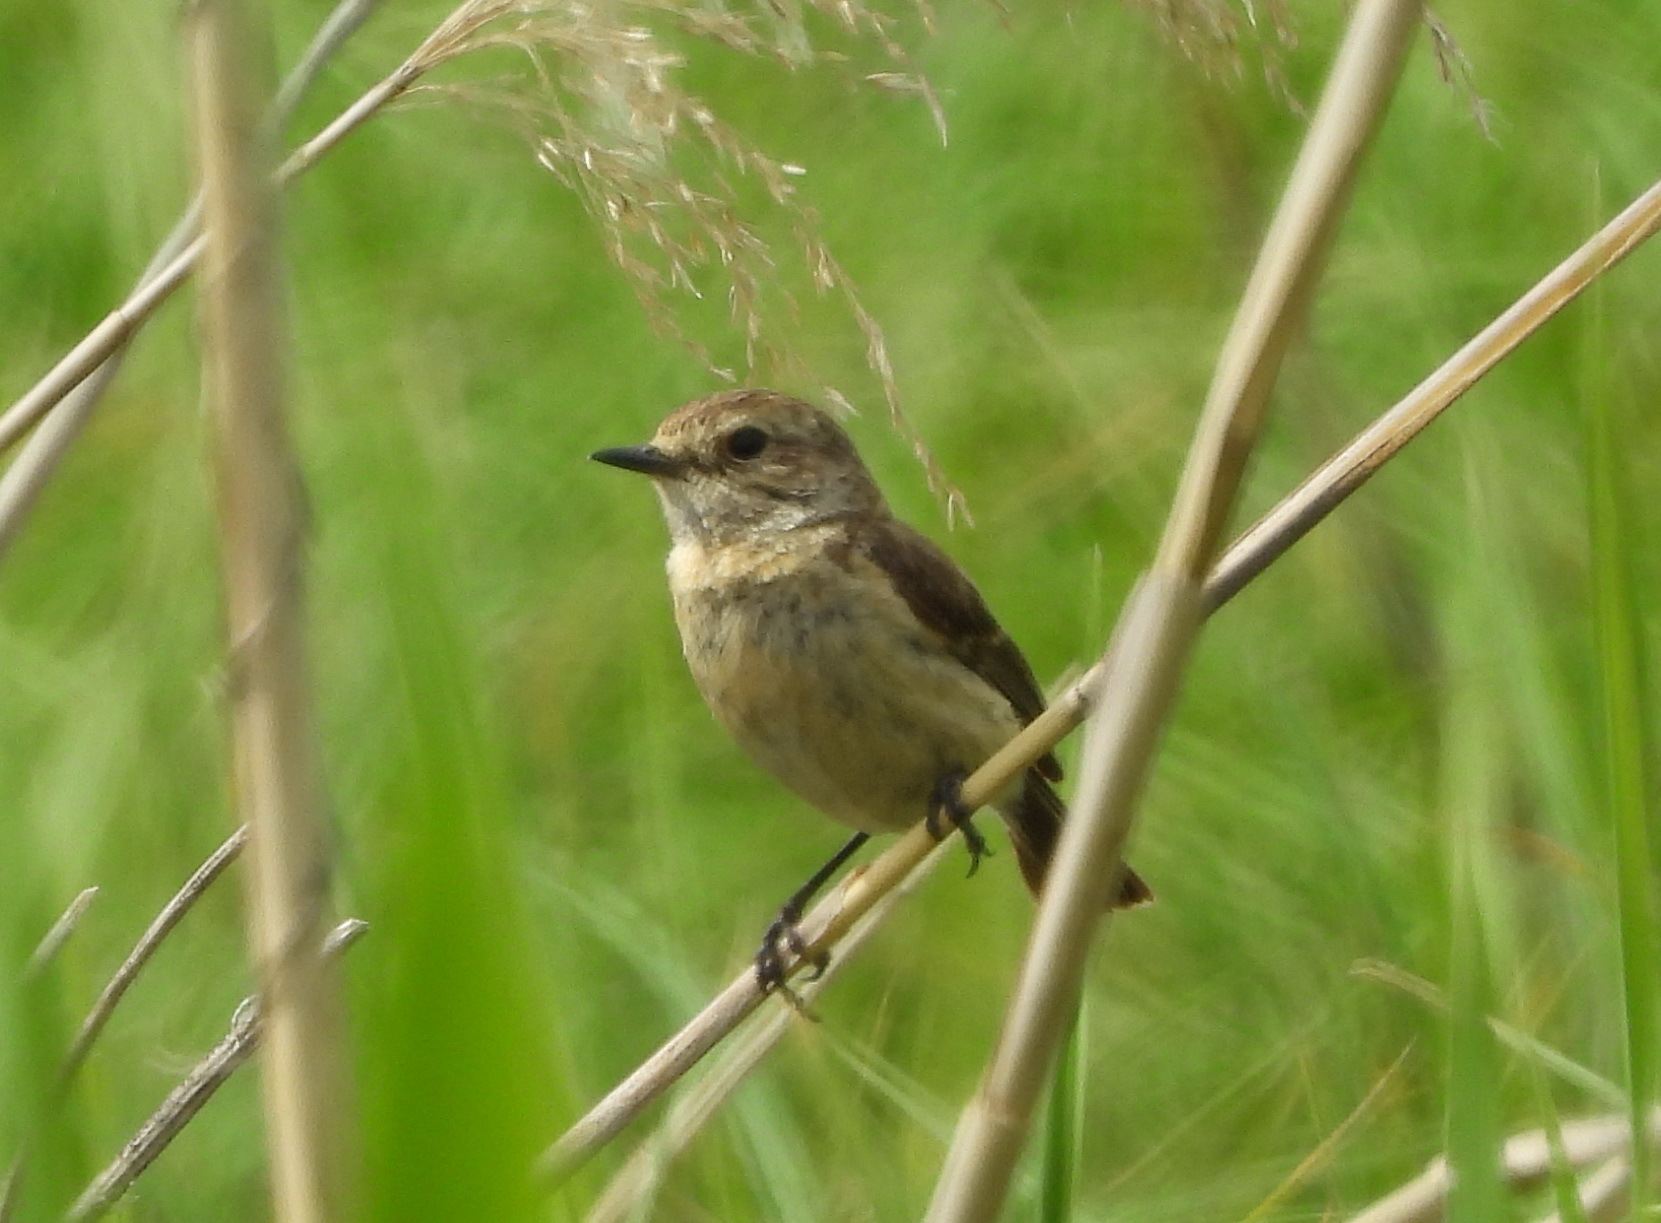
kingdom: Animalia
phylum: Chordata
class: Aves
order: Passeriformes
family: Muscicapidae
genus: Saxicola
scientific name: Saxicola maurus
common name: Siberian stonechat
